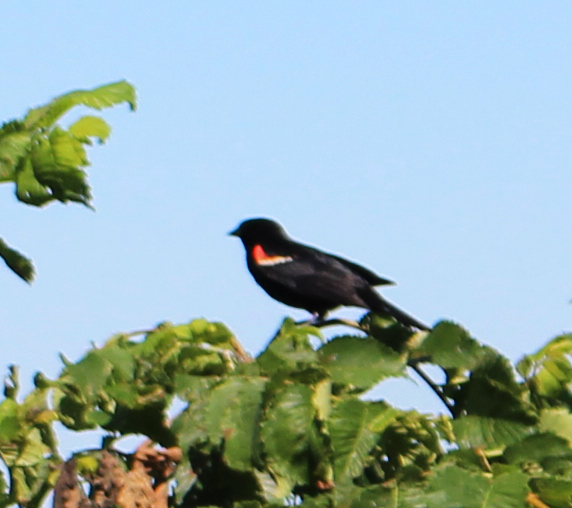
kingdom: Animalia
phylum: Chordata
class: Aves
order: Passeriformes
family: Icteridae
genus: Agelaius
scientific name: Agelaius phoeniceus
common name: Red-winged blackbird
